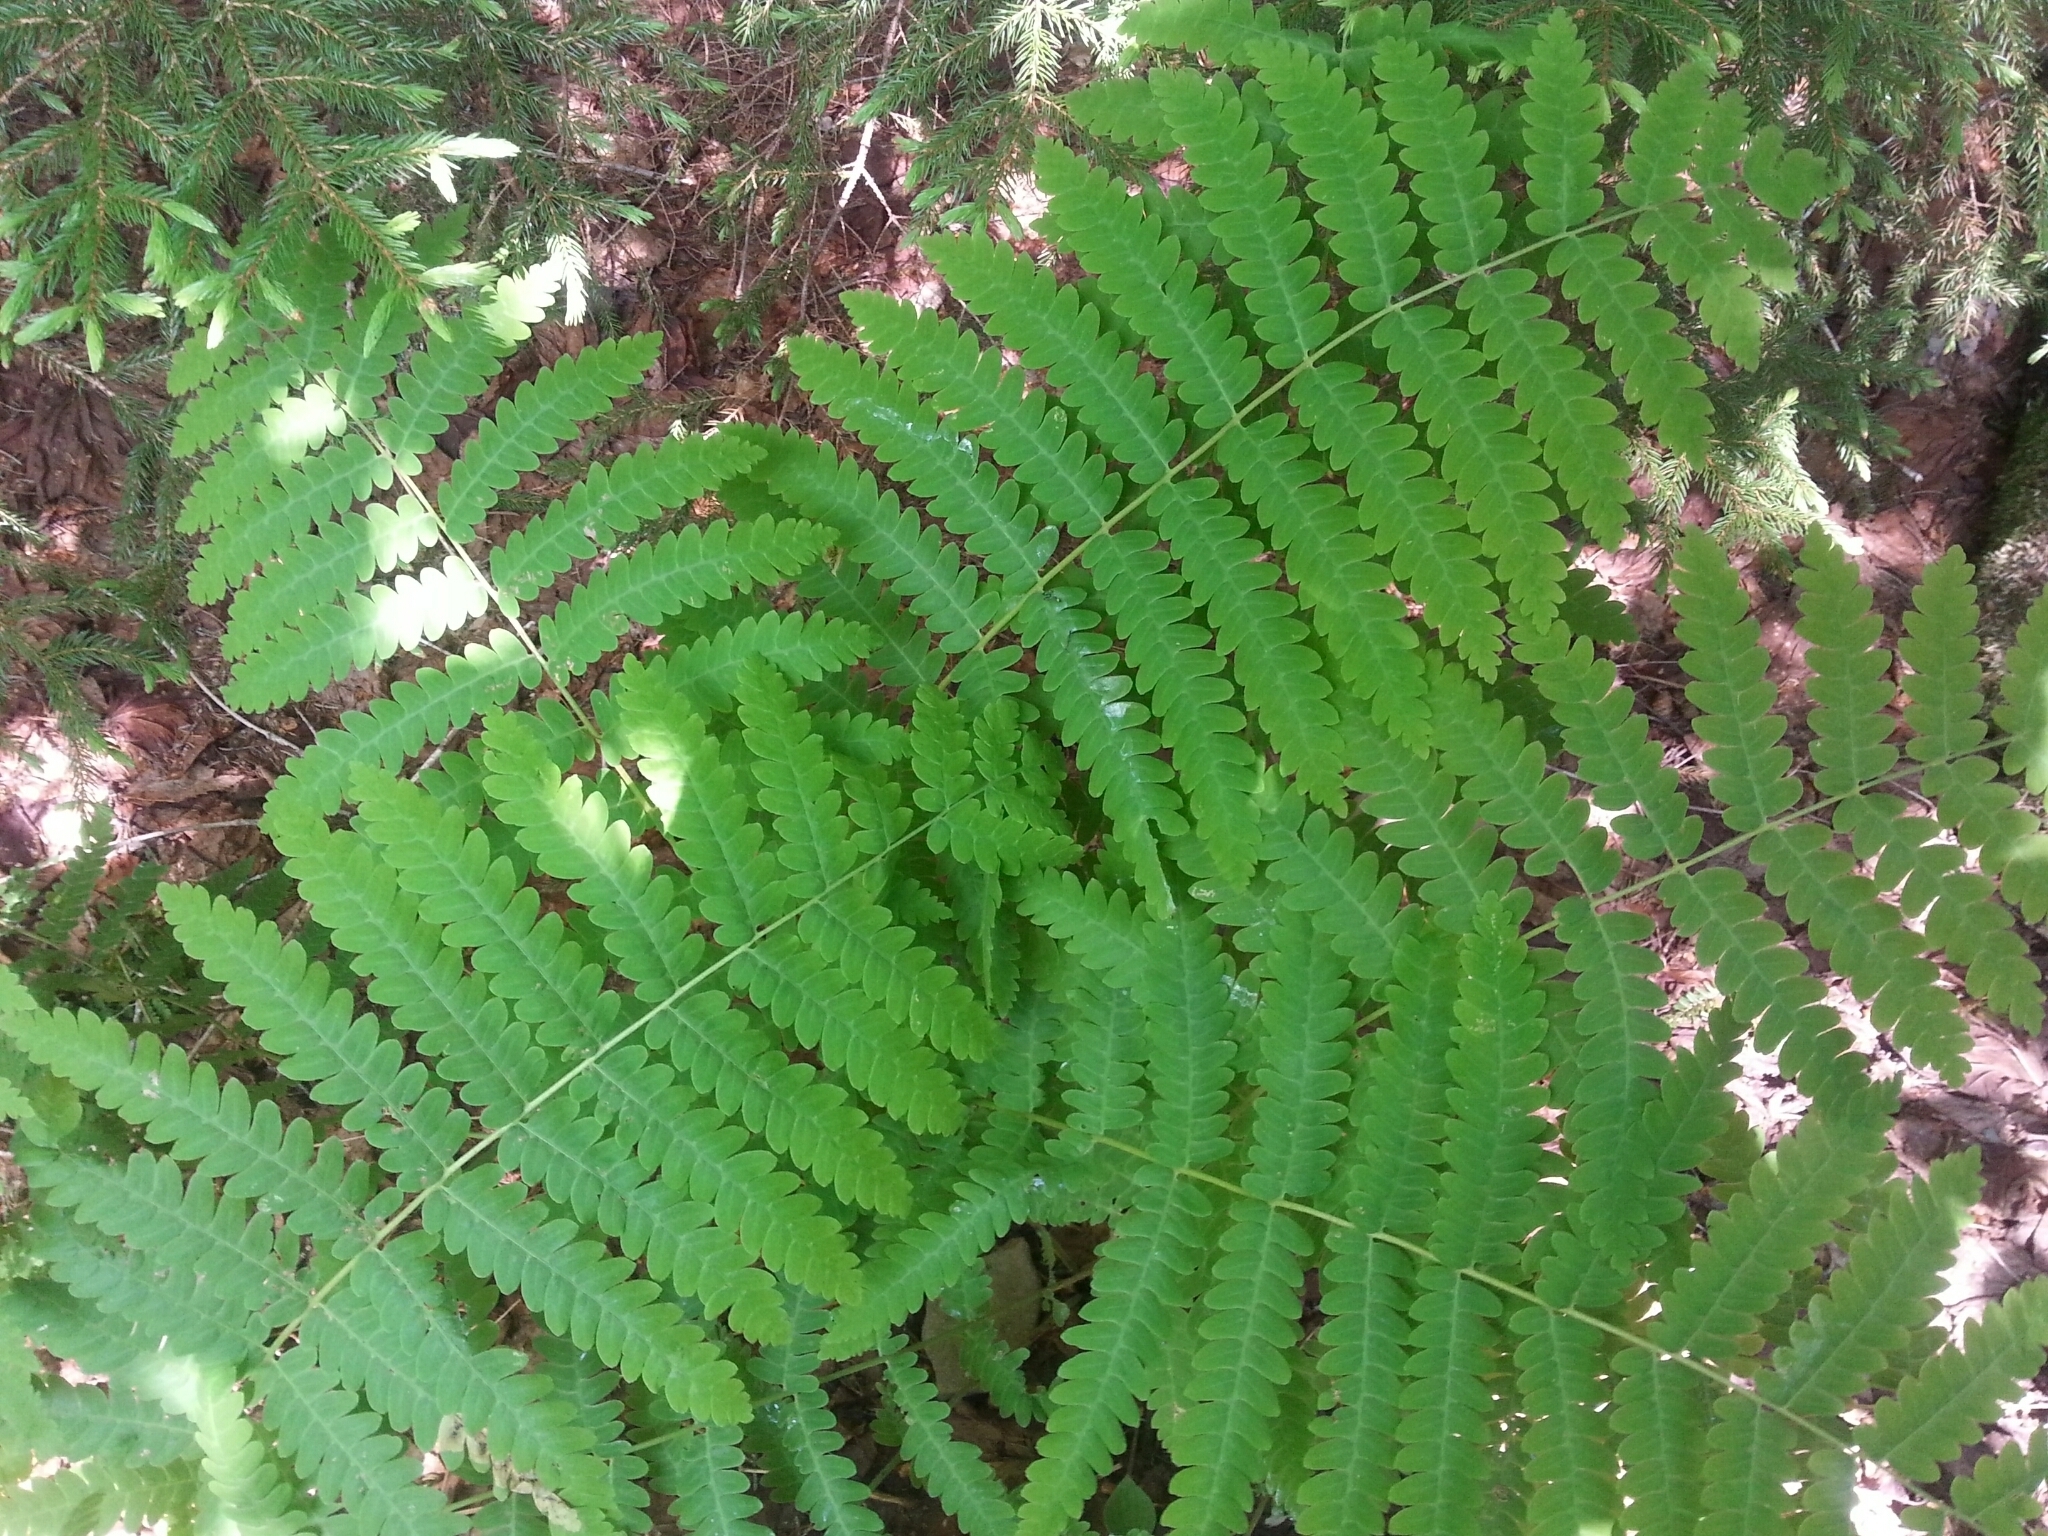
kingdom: Plantae
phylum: Tracheophyta
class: Polypodiopsida
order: Osmundales
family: Osmundaceae
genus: Claytosmunda
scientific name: Claytosmunda claytoniana
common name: Clayton's fern
